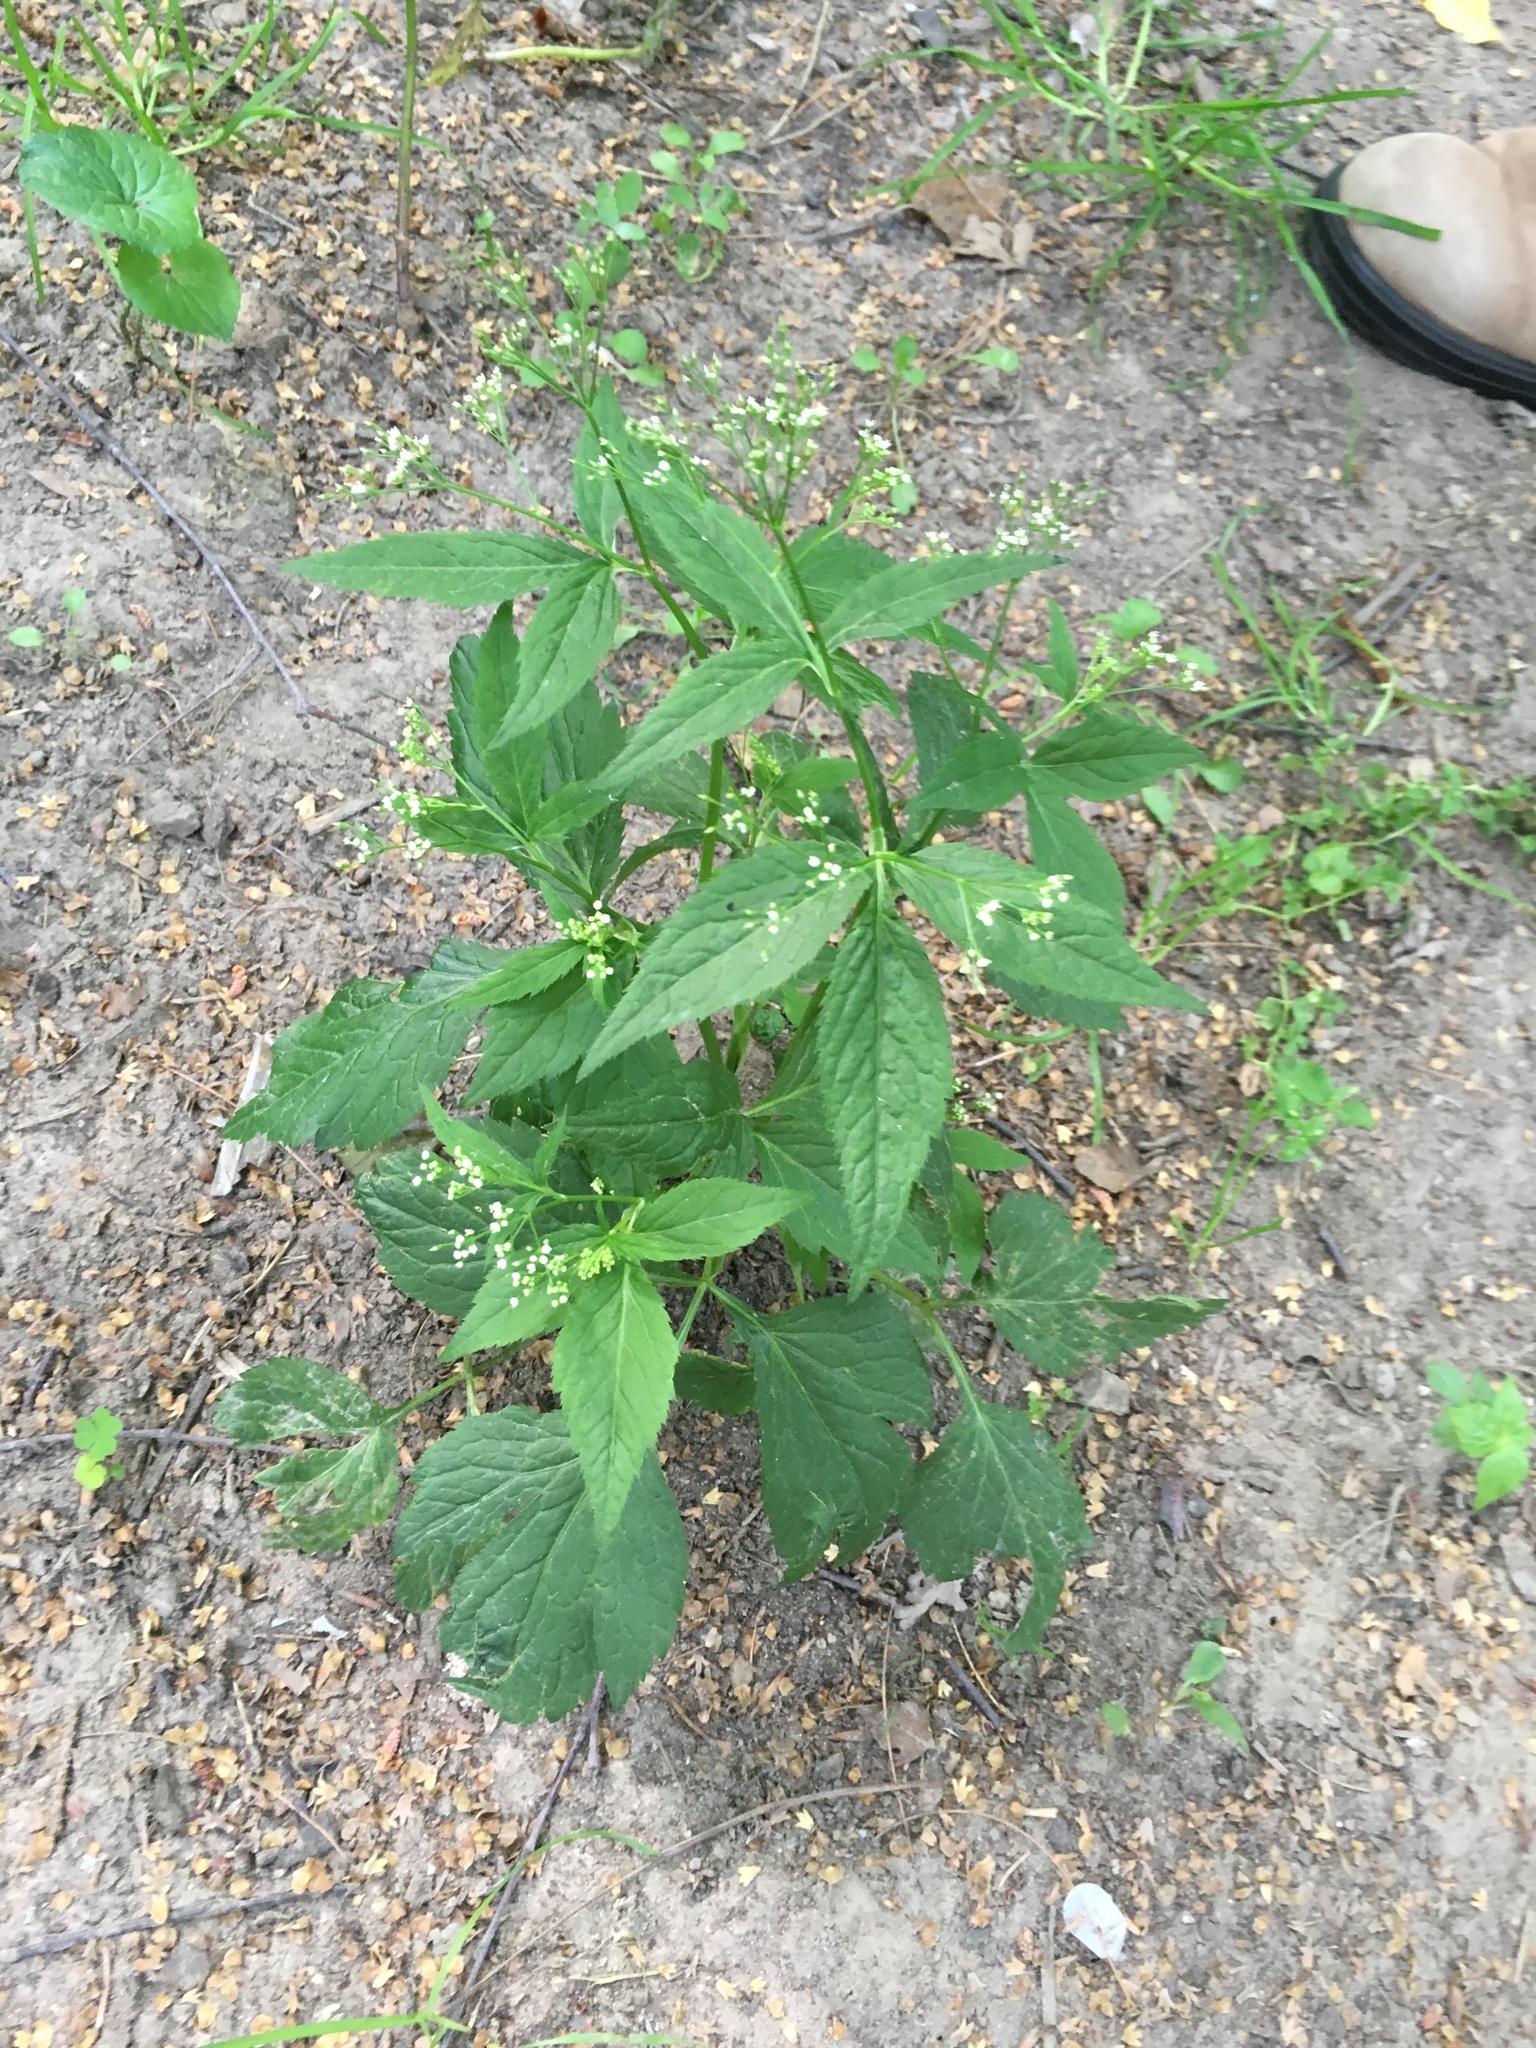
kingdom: Plantae
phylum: Tracheophyta
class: Magnoliopsida
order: Apiales
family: Apiaceae
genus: Cryptotaenia
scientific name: Cryptotaenia canadensis
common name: Honewort
